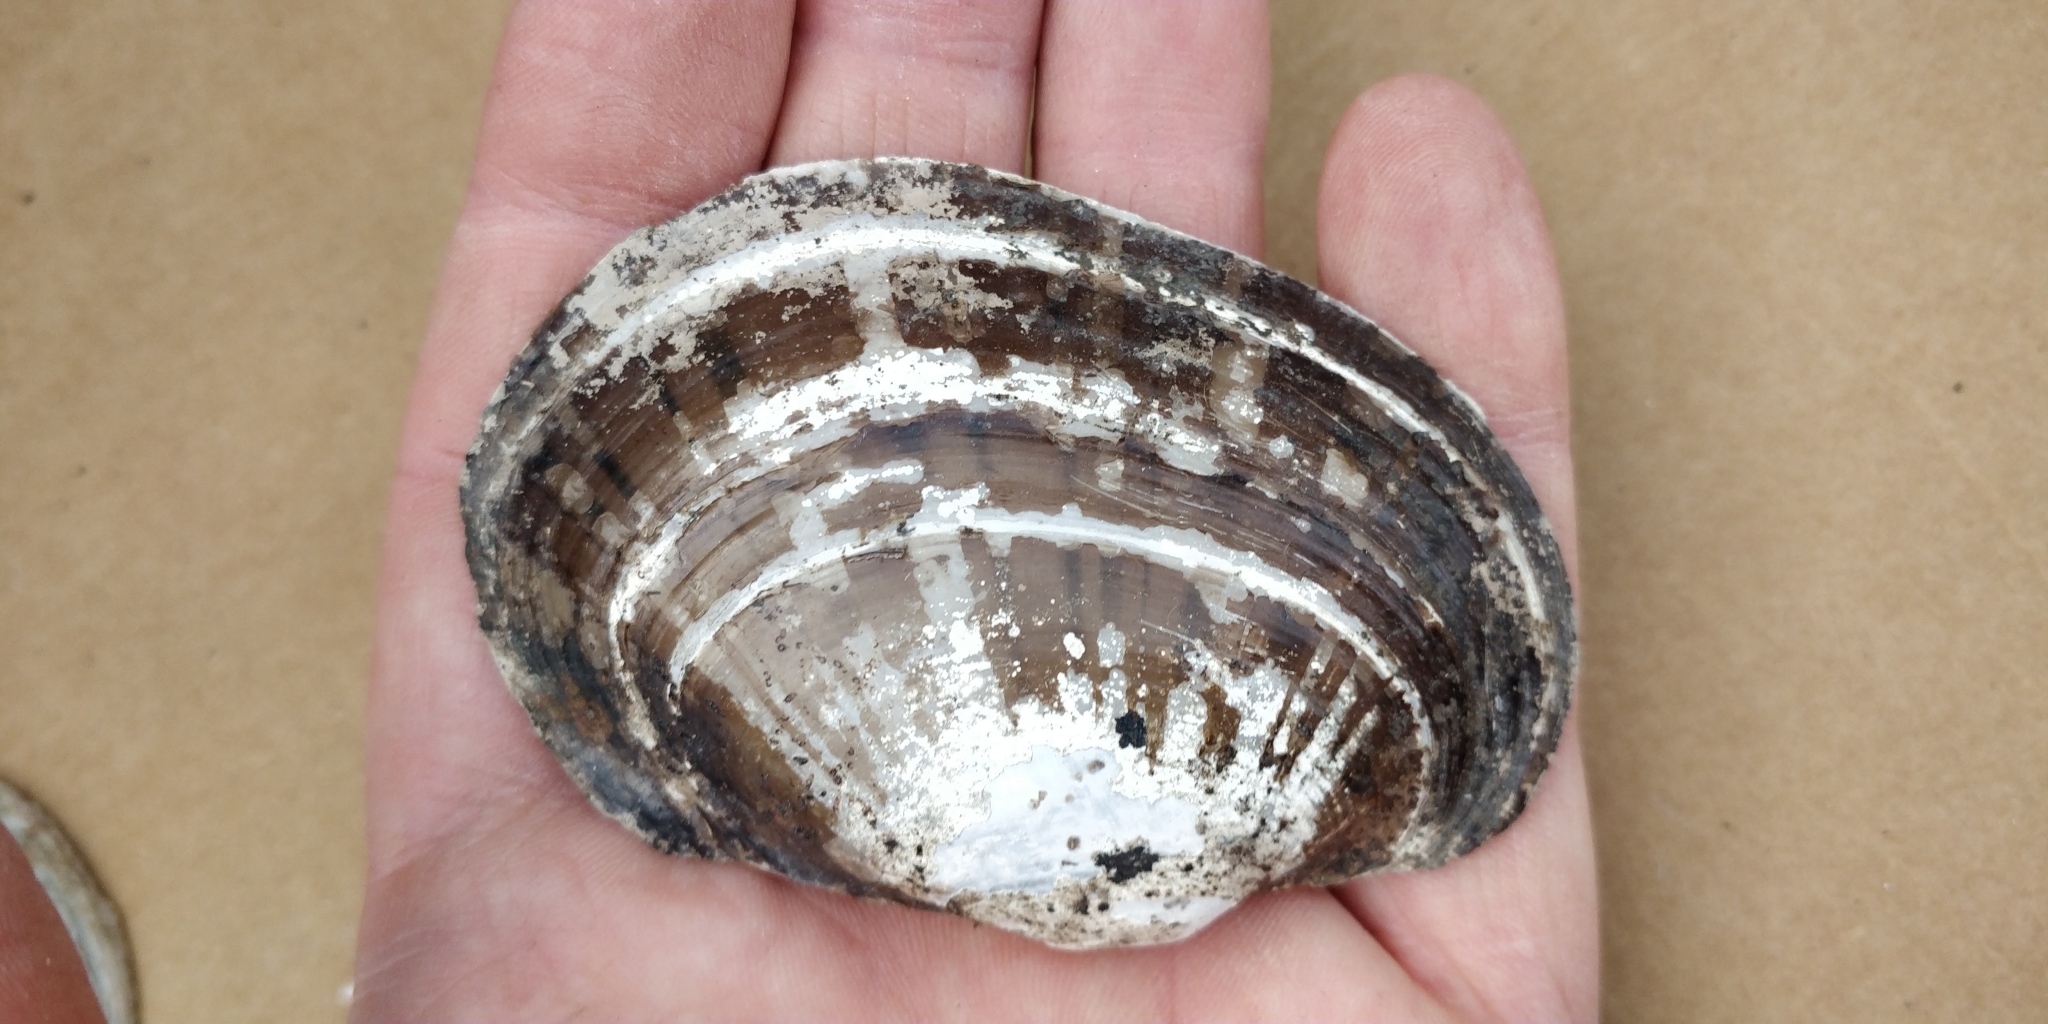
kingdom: Animalia
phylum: Mollusca
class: Bivalvia
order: Unionida
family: Unionidae
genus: Lampsilis
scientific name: Lampsilis cardium
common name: Plain pocketbook
